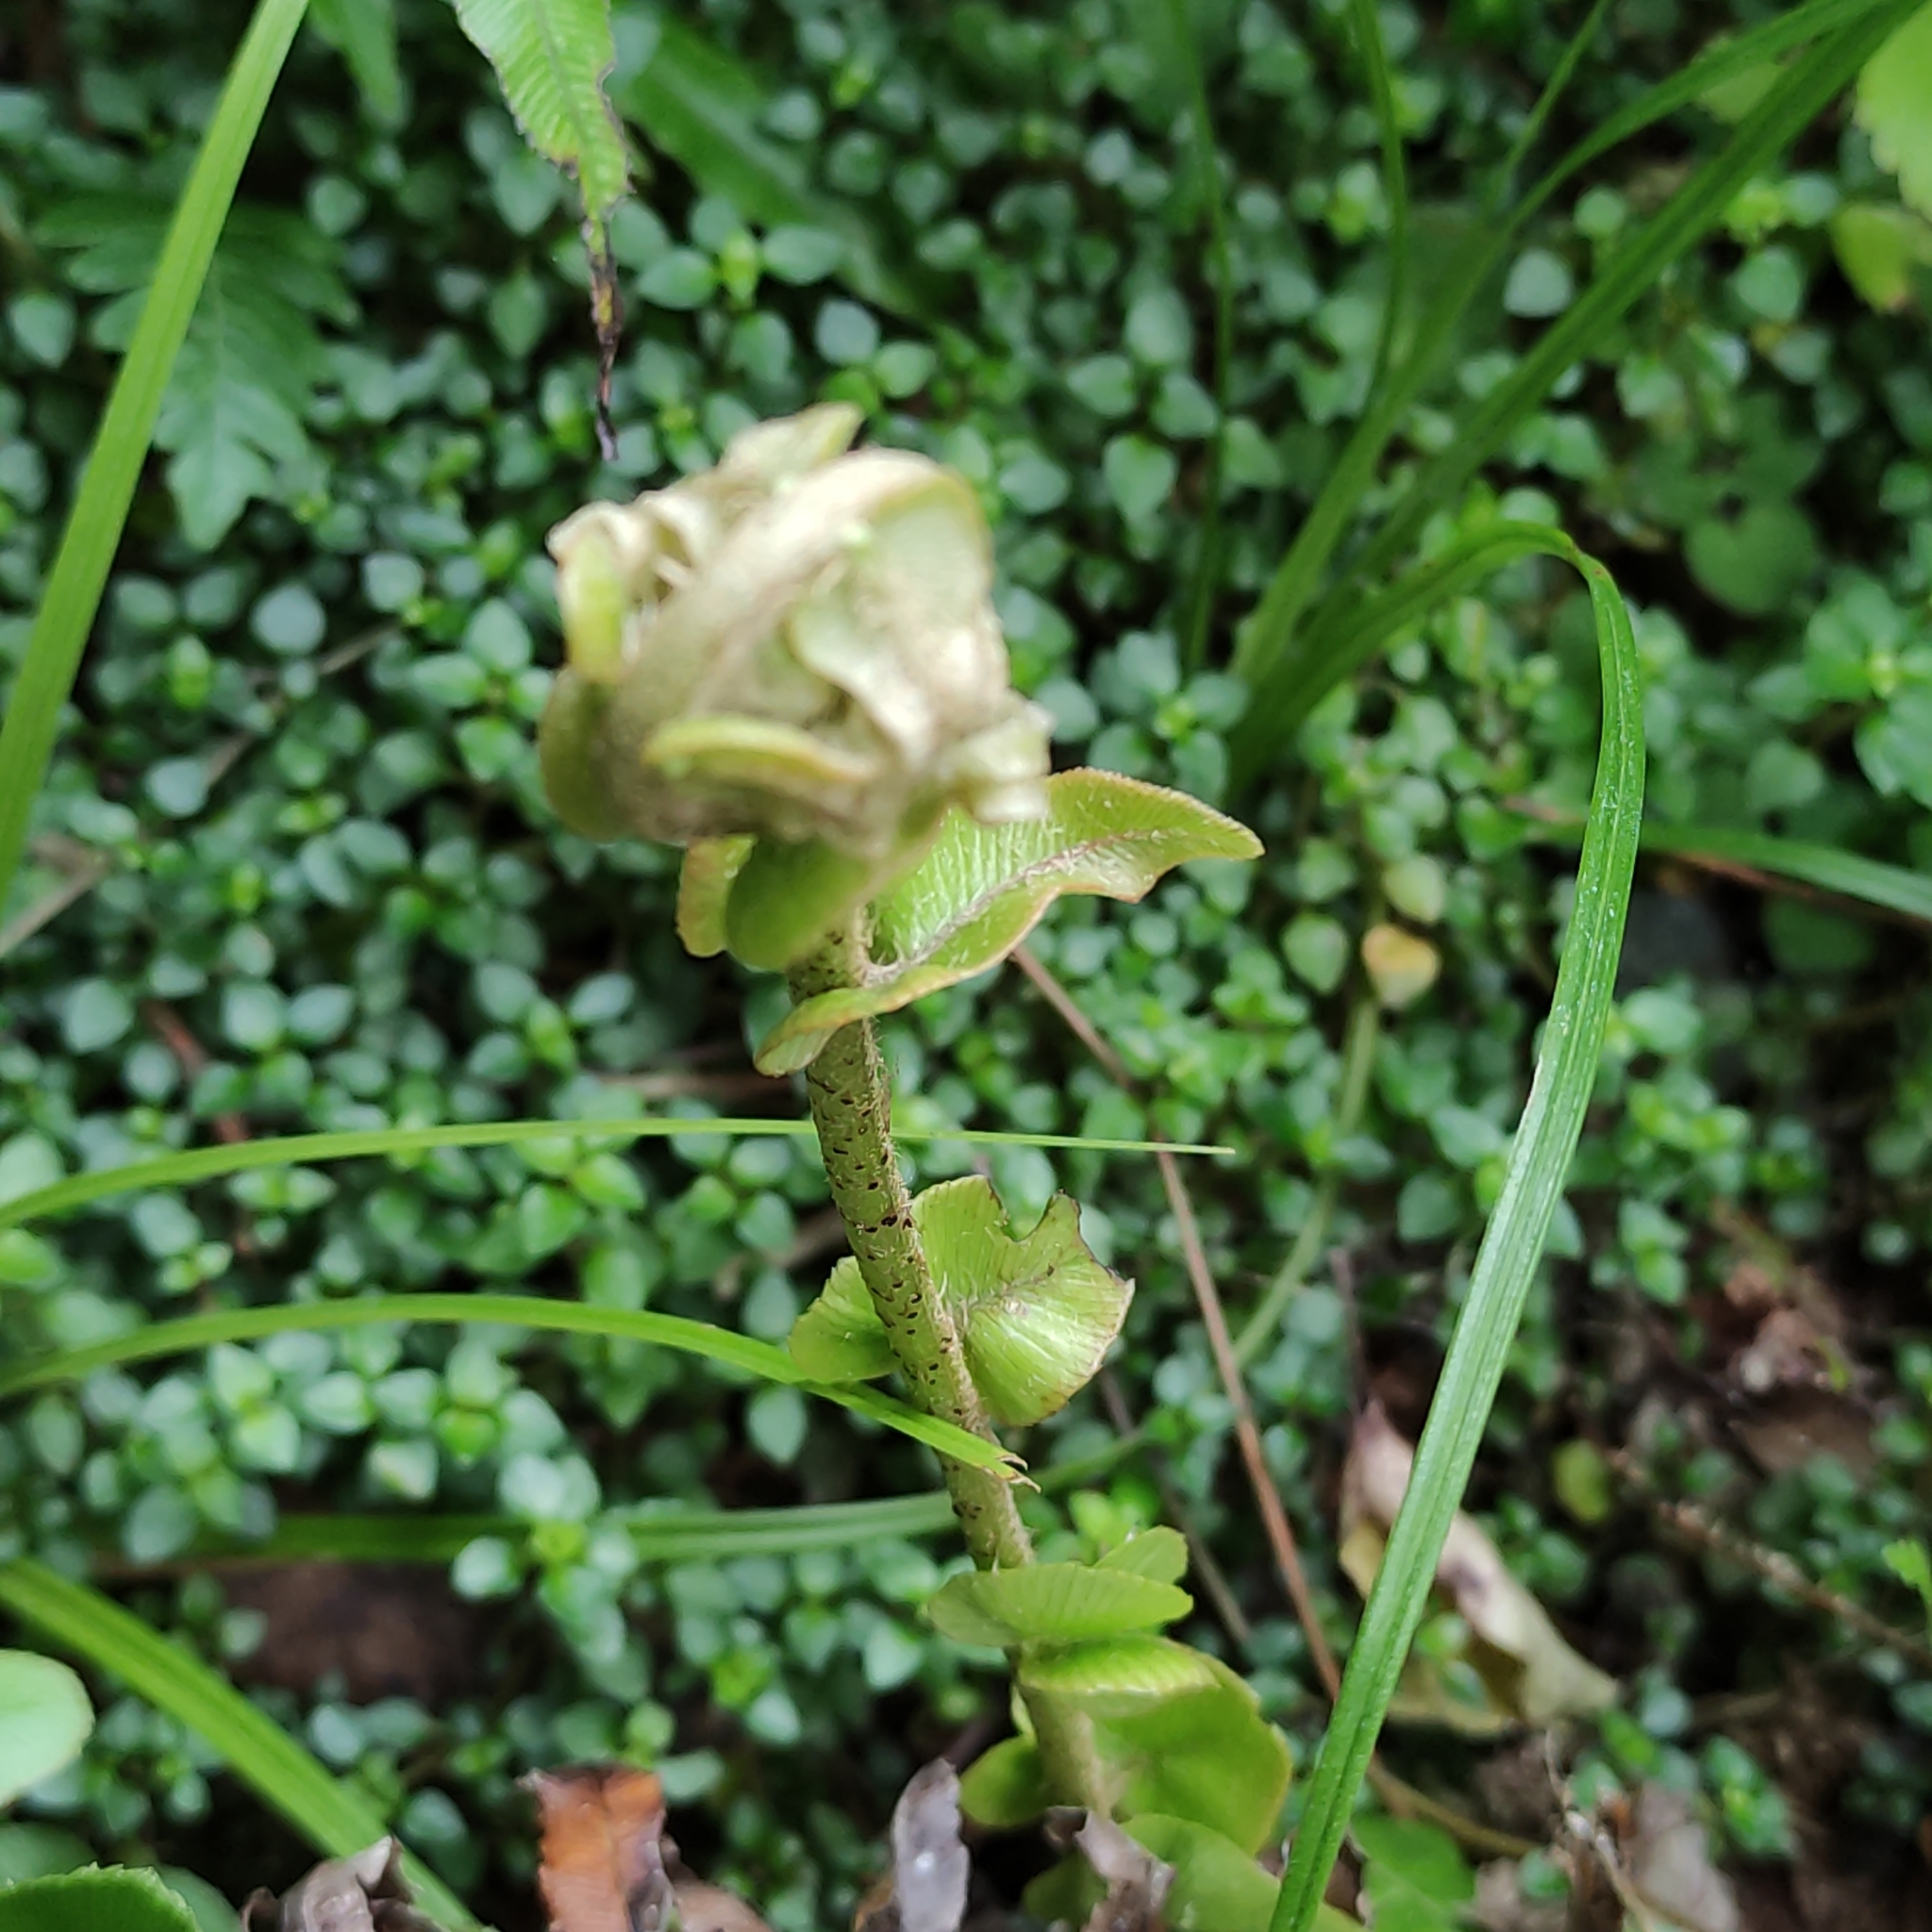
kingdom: Plantae
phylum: Tracheophyta
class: Polypodiopsida
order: Polypodiales
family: Blechnaceae
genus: Parablechnum
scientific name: Parablechnum novae-zelandiae
